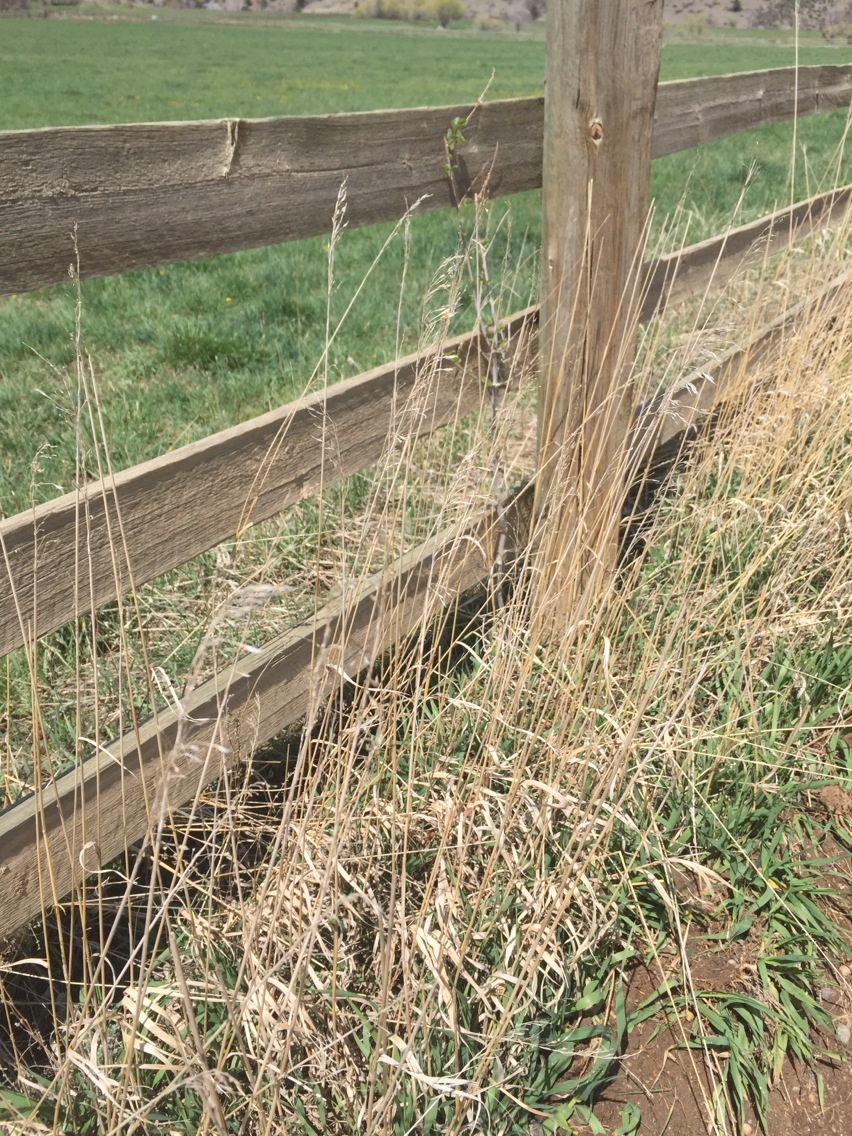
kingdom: Plantae
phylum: Tracheophyta
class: Liliopsida
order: Poales
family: Poaceae
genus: Bromus
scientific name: Bromus inermis
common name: Smooth brome
